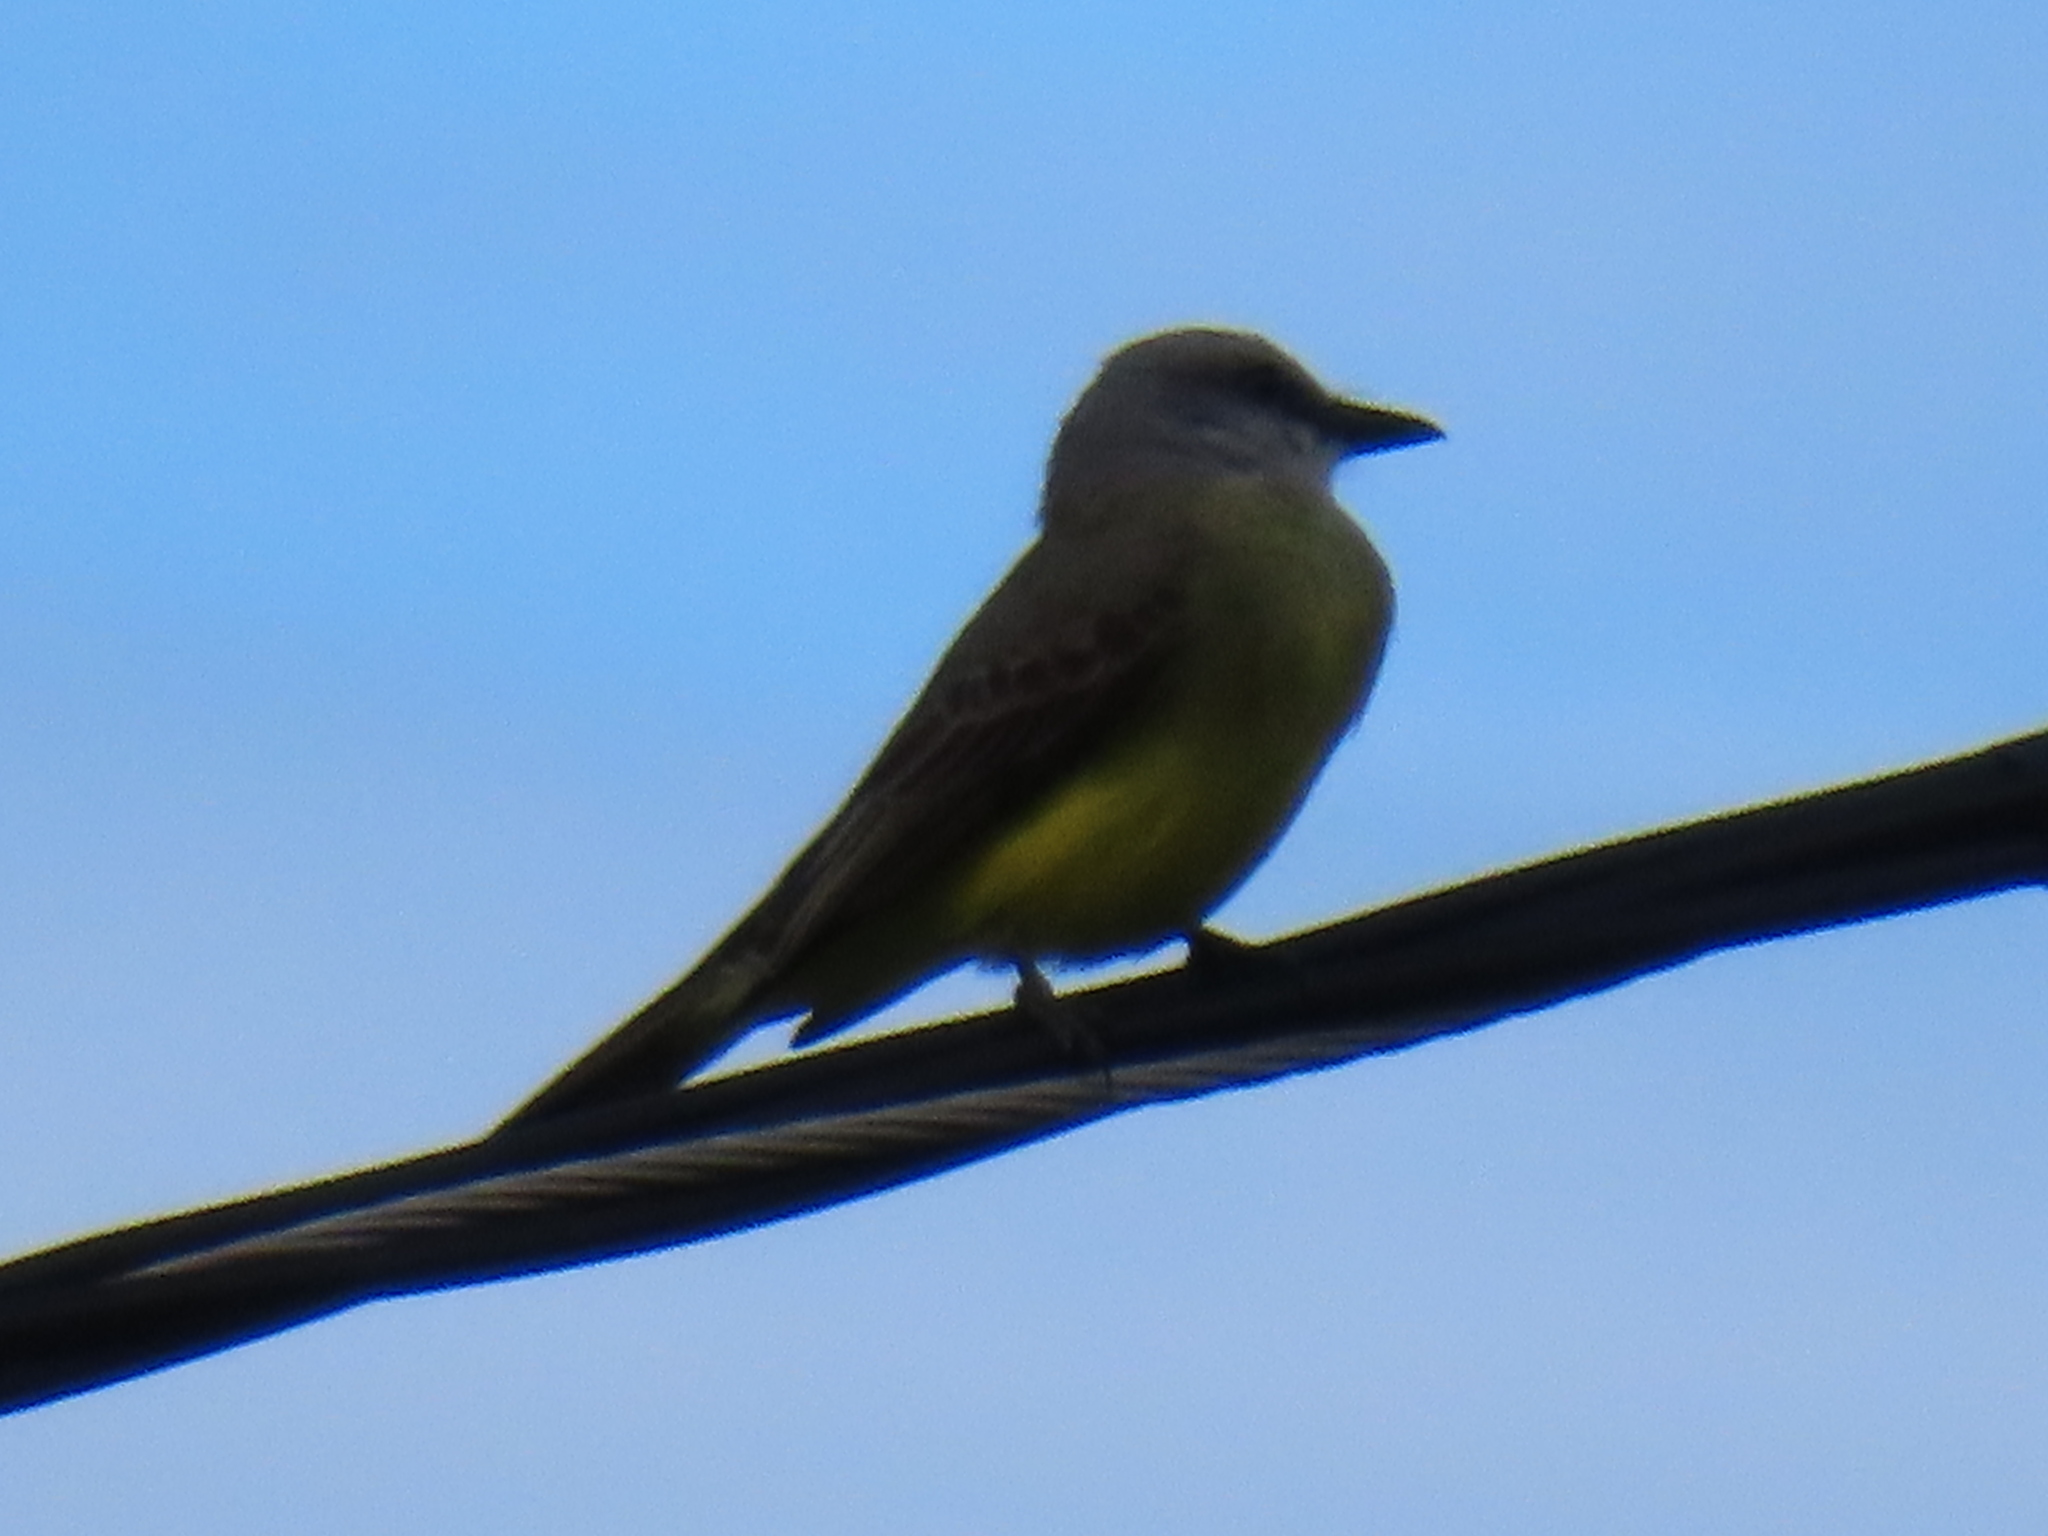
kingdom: Animalia
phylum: Chordata
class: Aves
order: Passeriformes
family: Tyrannidae
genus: Tyrannus
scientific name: Tyrannus melancholicus
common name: Tropical kingbird
